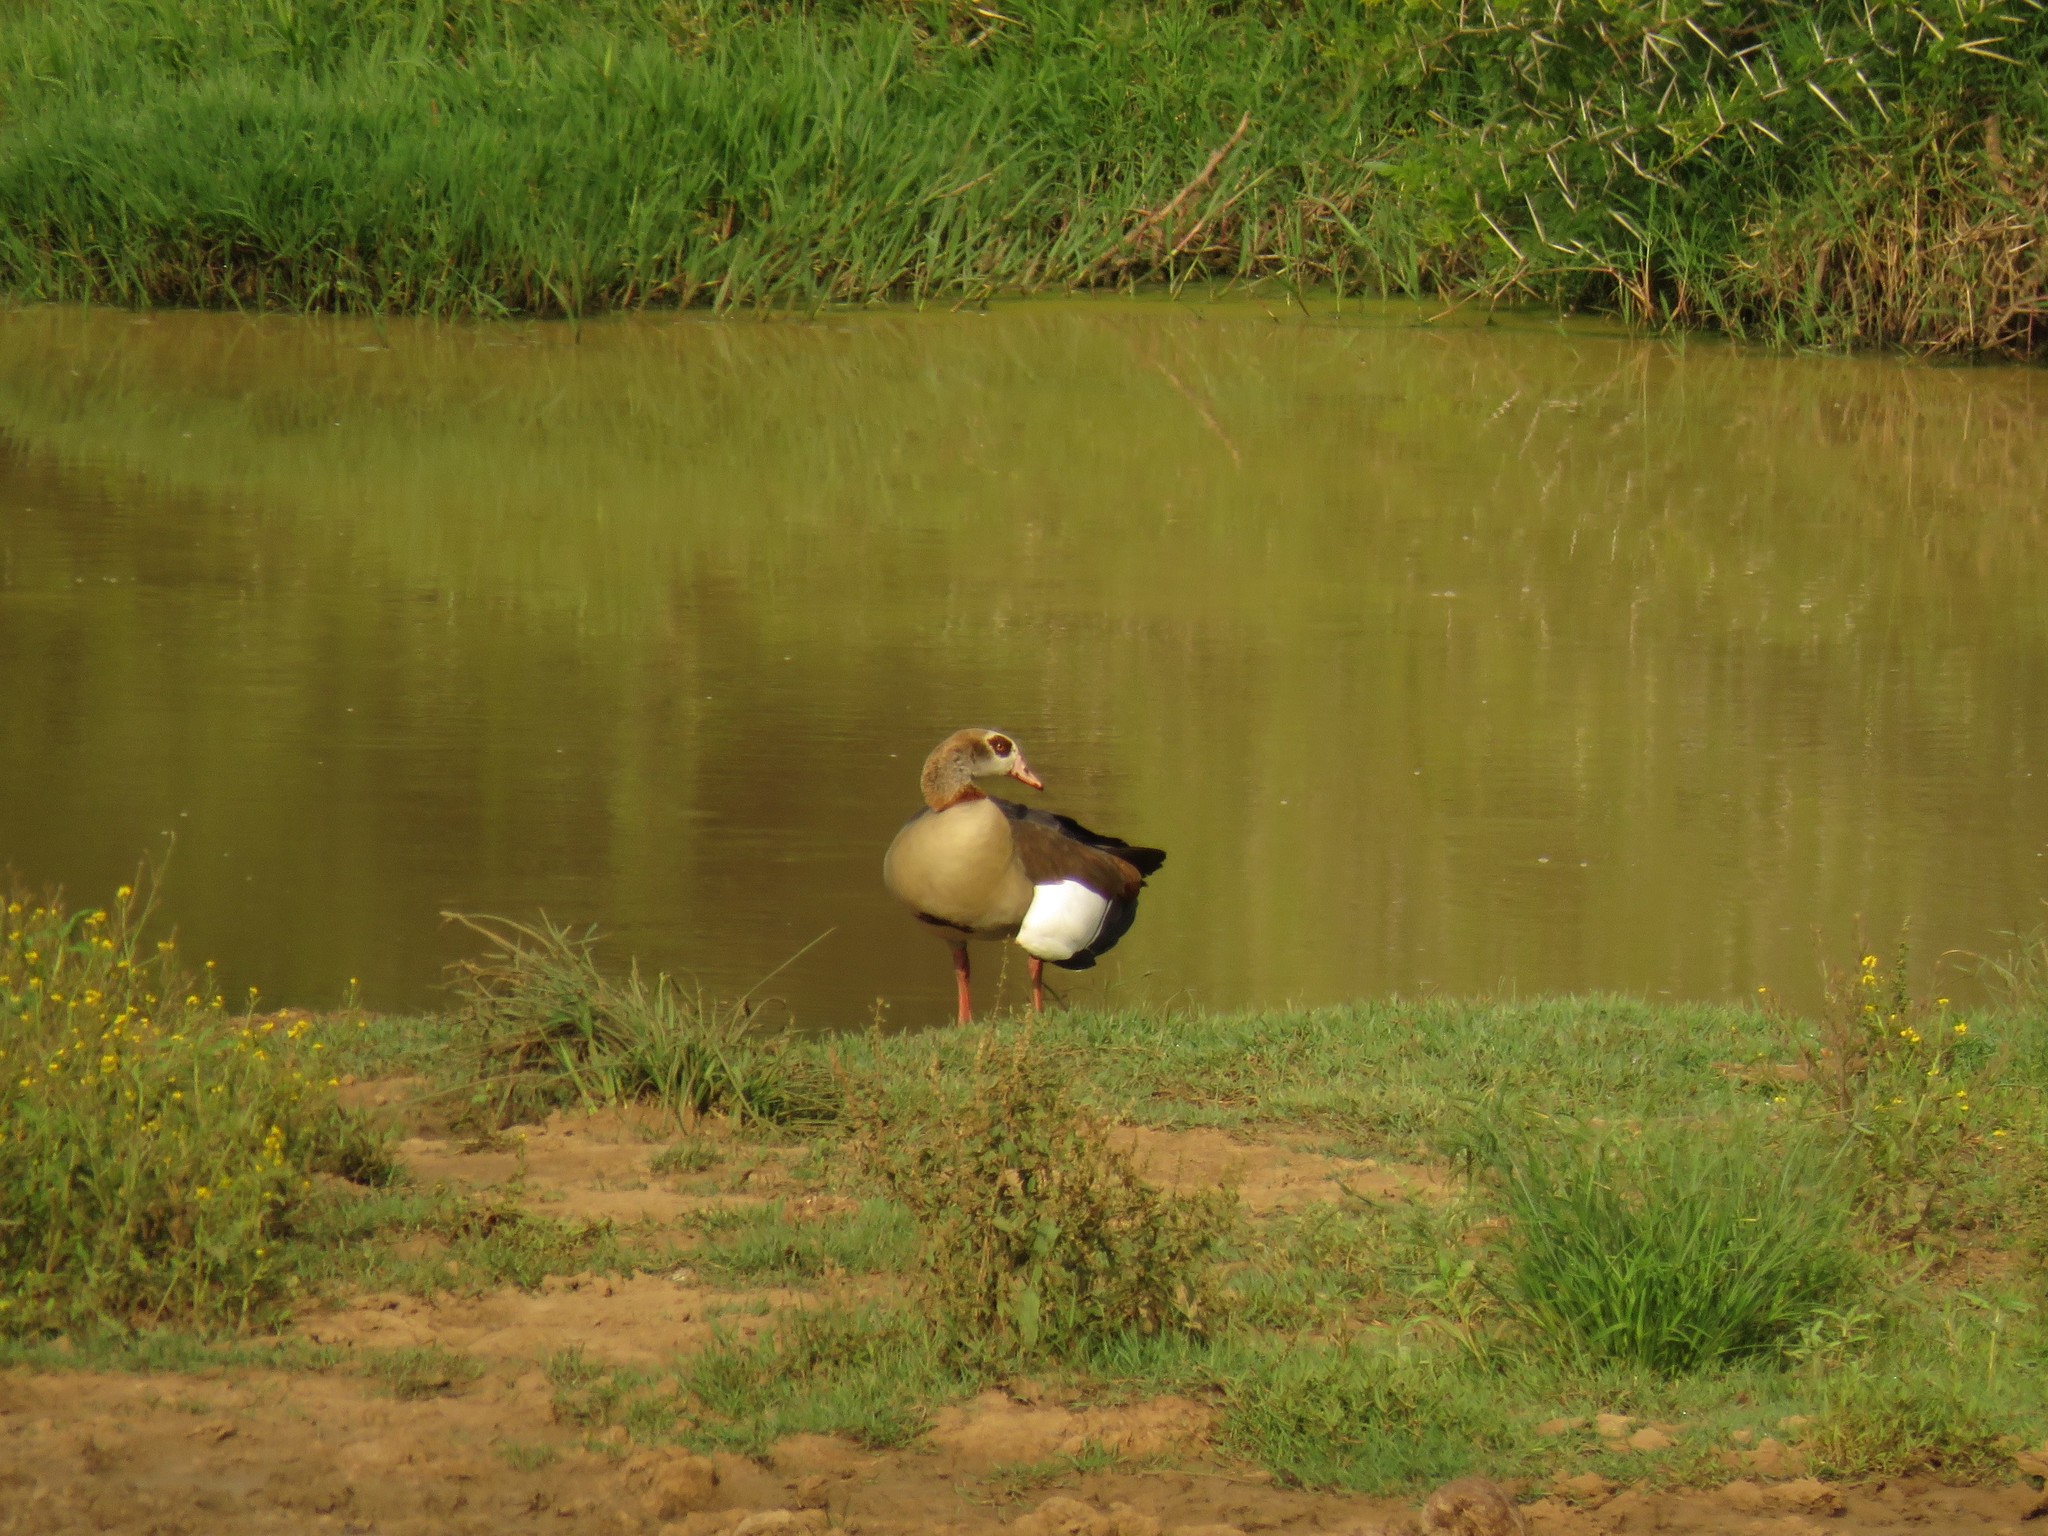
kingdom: Animalia
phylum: Chordata
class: Aves
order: Anseriformes
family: Anatidae
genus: Alopochen
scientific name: Alopochen aegyptiaca
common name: Egyptian goose
